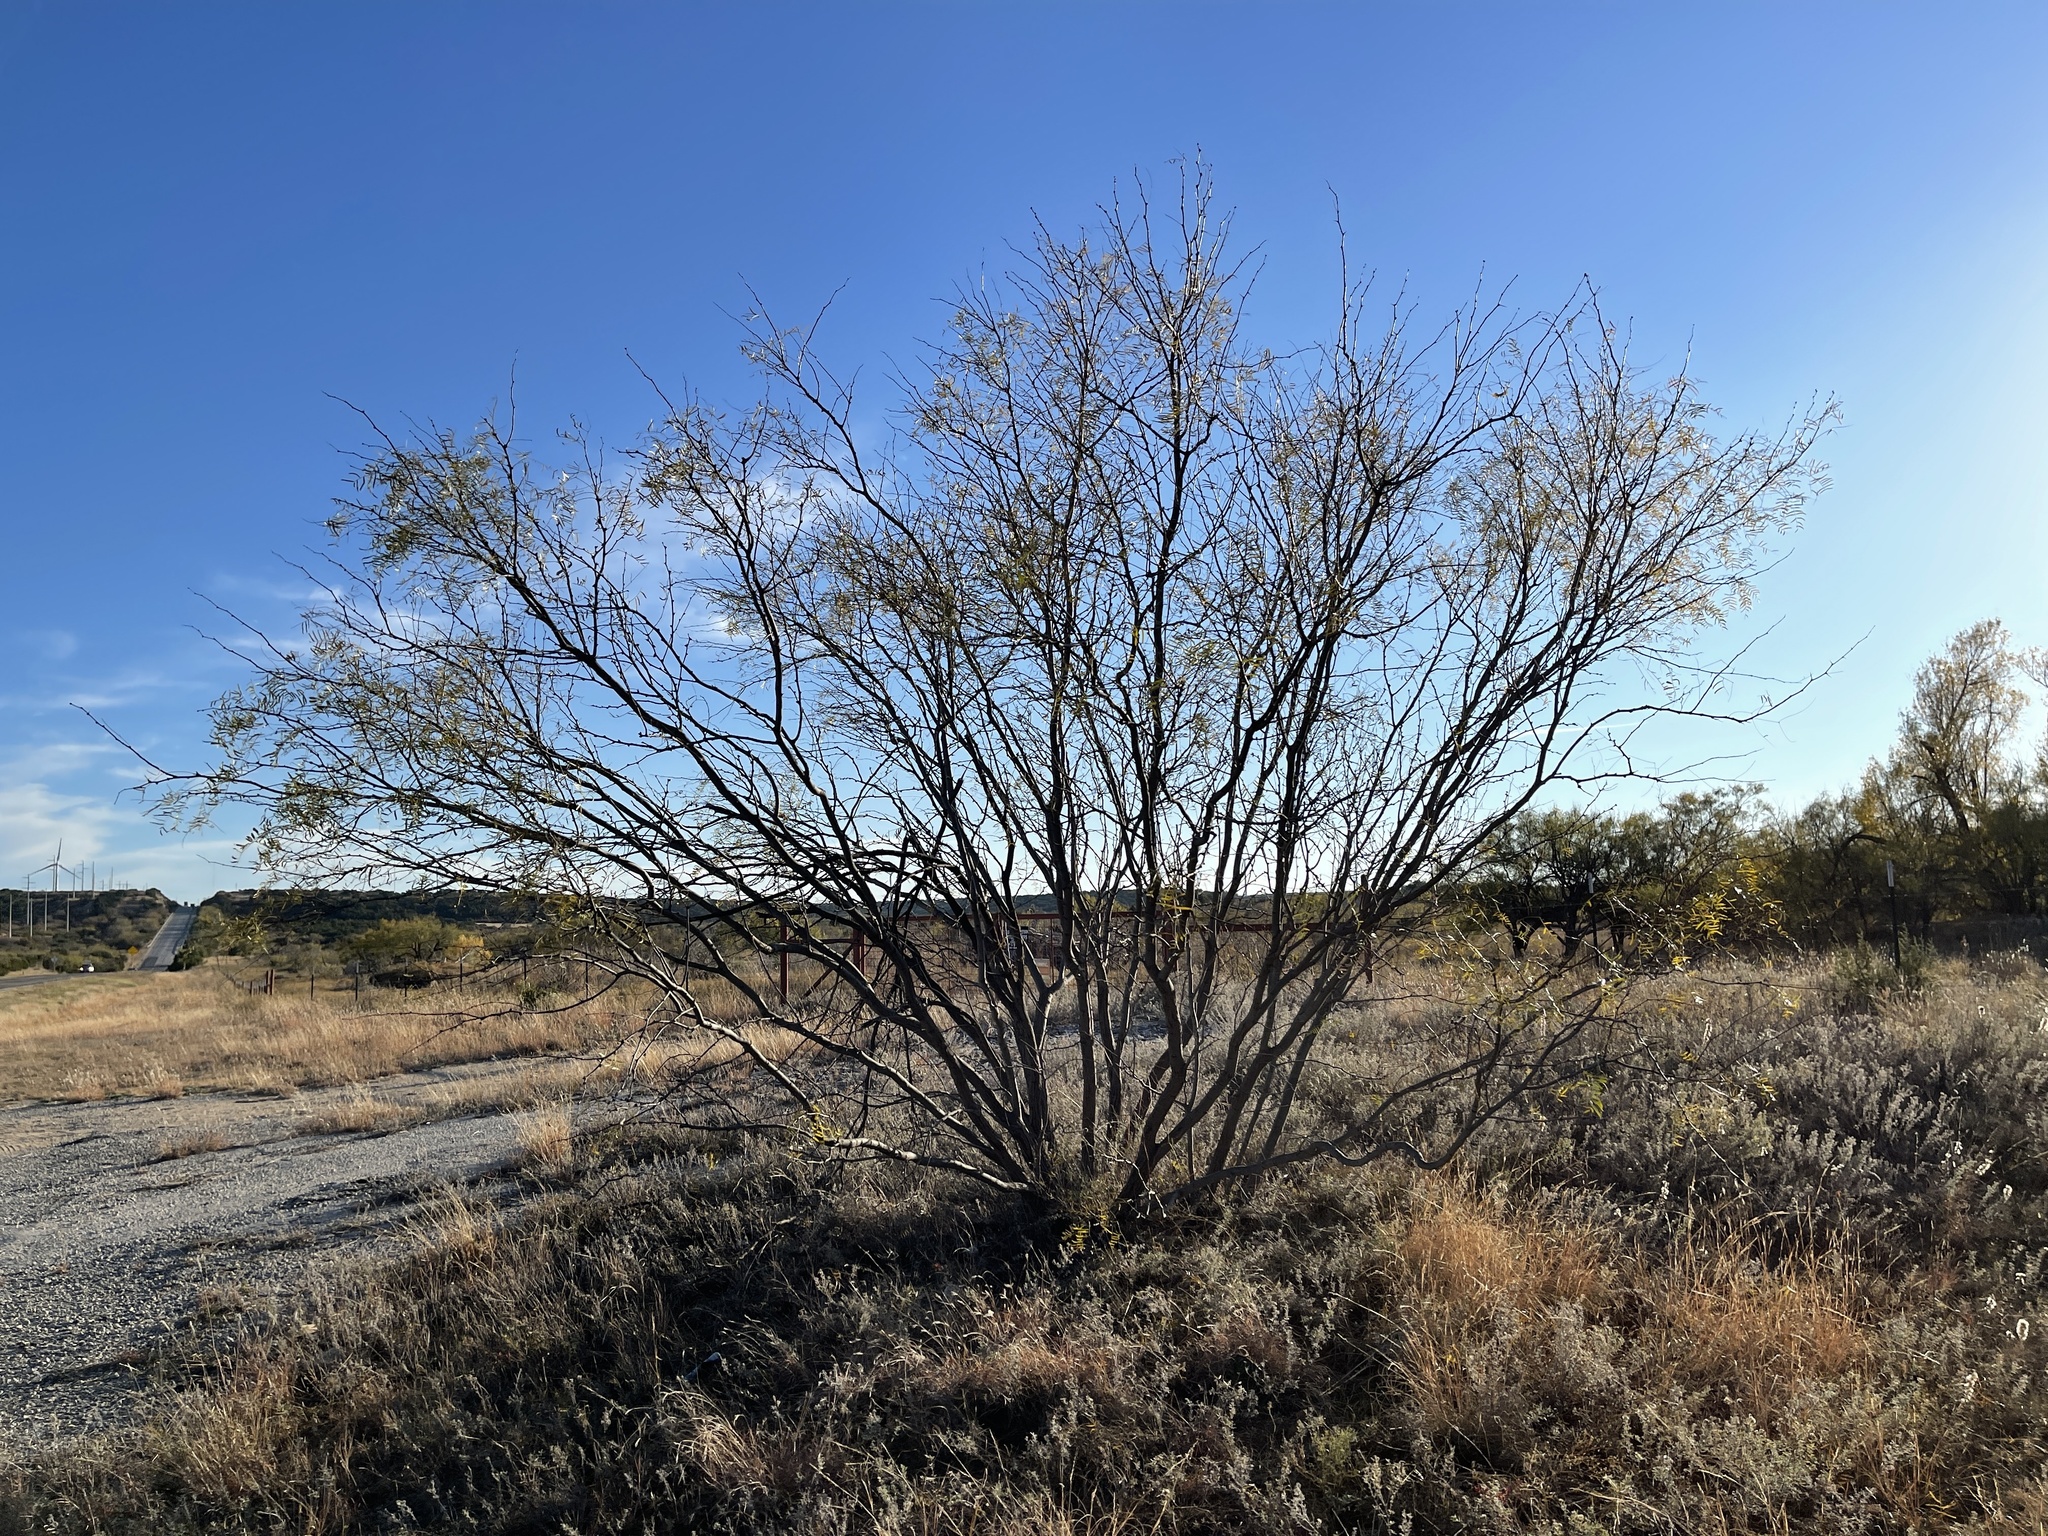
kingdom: Plantae
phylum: Tracheophyta
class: Magnoliopsida
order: Fabales
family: Fabaceae
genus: Prosopis
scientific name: Prosopis glandulosa
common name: Honey mesquite
